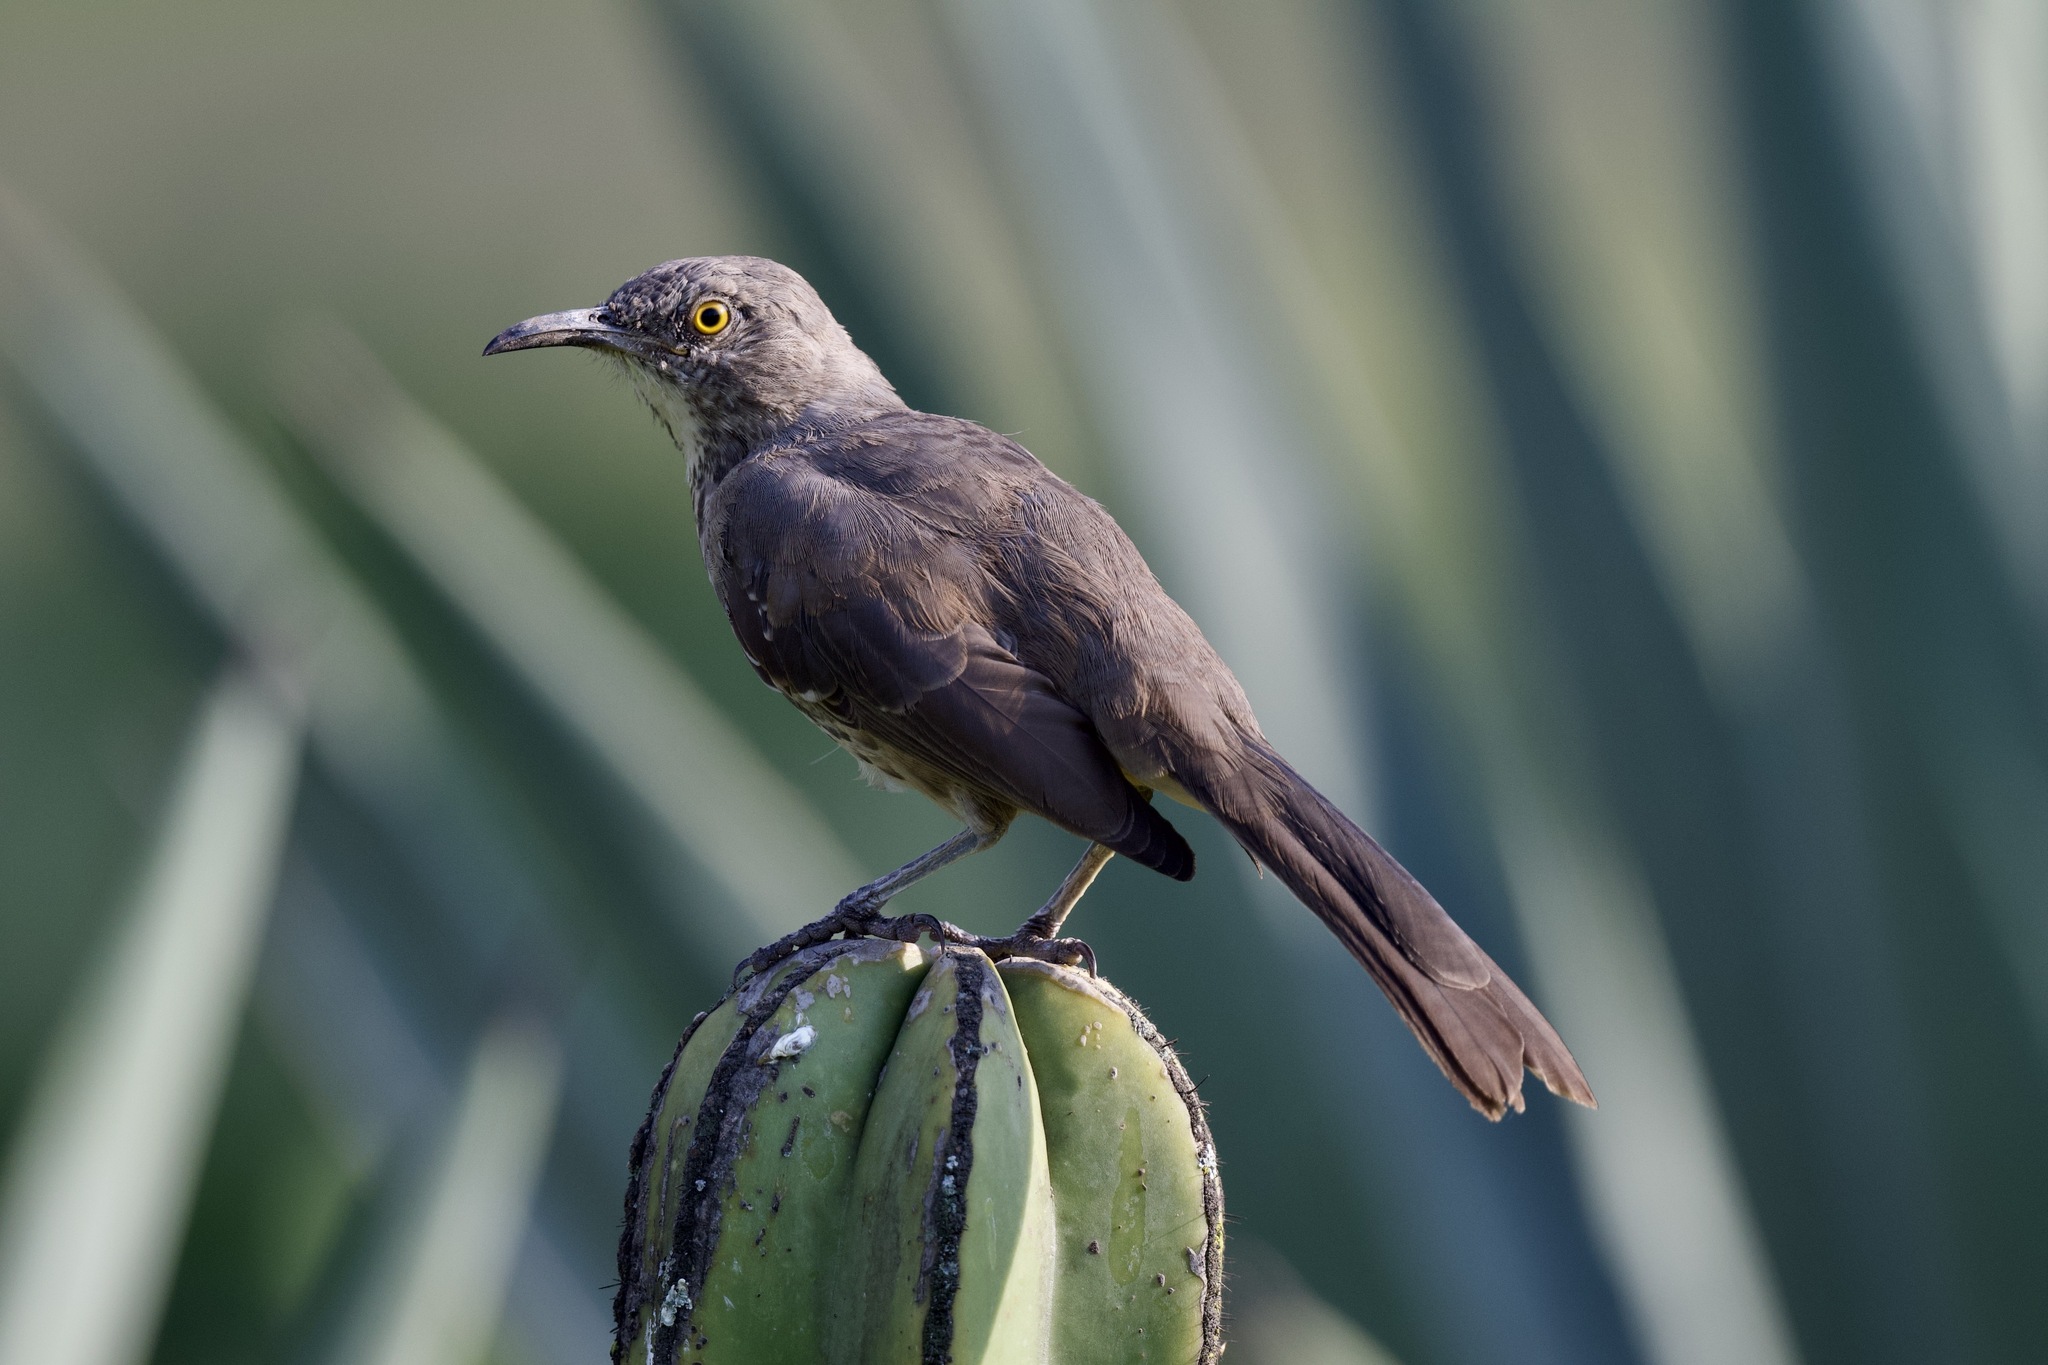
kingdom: Animalia
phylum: Chordata
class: Aves
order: Passeriformes
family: Mimidae
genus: Toxostoma
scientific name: Toxostoma curvirostre
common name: Curve-billed thrasher
